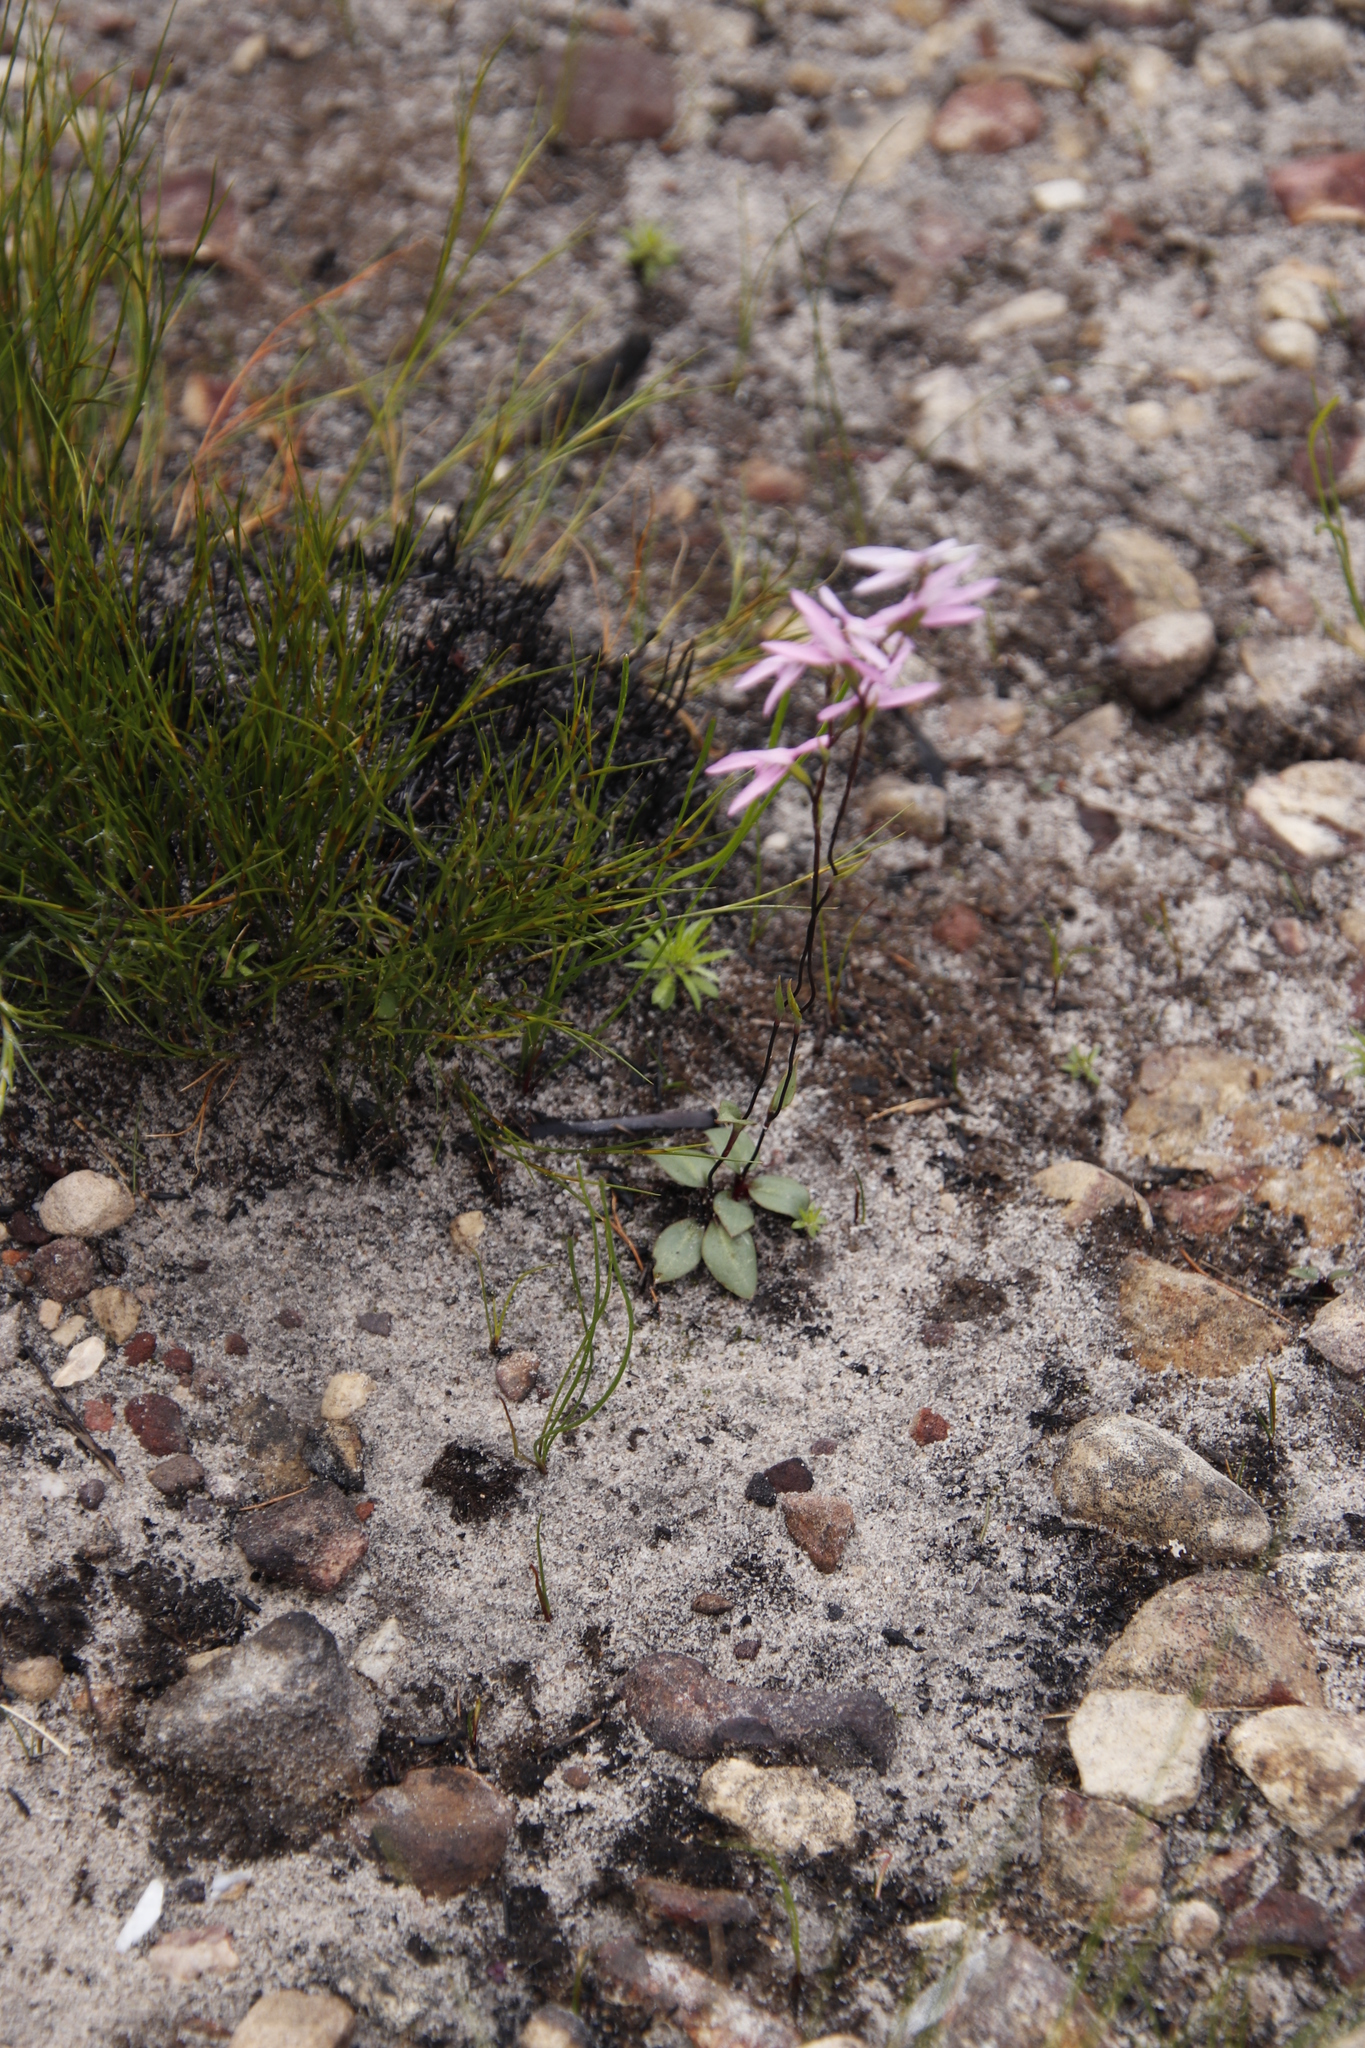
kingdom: Plantae
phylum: Tracheophyta
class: Liliopsida
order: Asparagales
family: Orchidaceae
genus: Disa
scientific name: Disa obliqua
